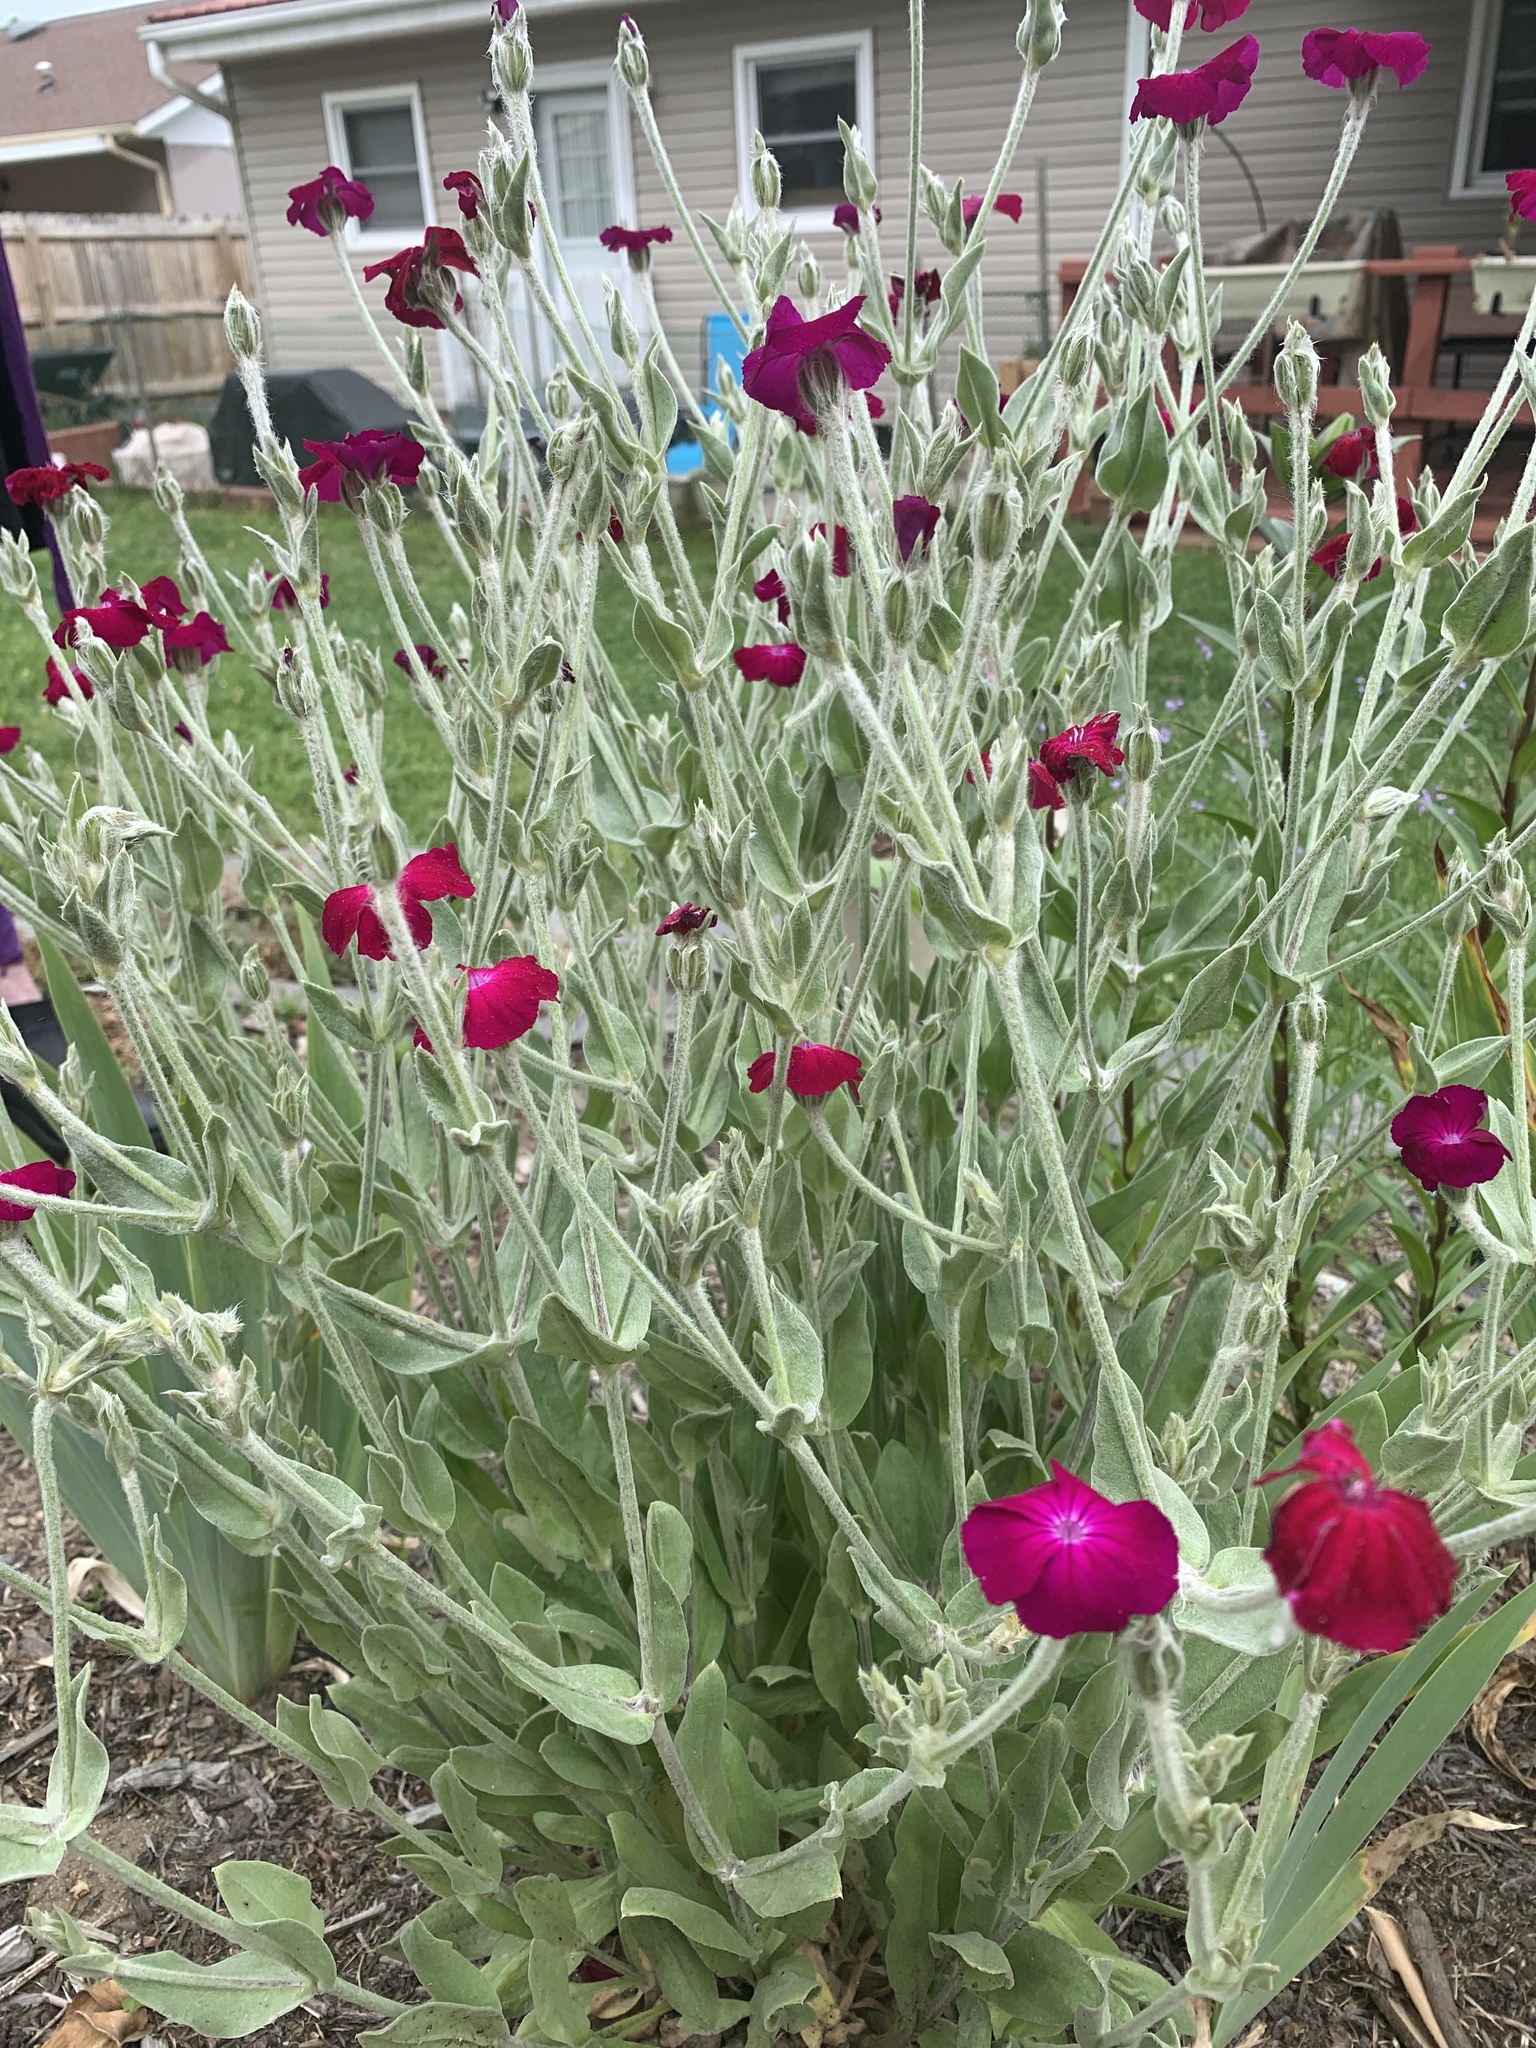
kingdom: Plantae
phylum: Tracheophyta
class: Magnoliopsida
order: Caryophyllales
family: Caryophyllaceae
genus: Silene
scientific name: Silene coronaria
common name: Rose campion
